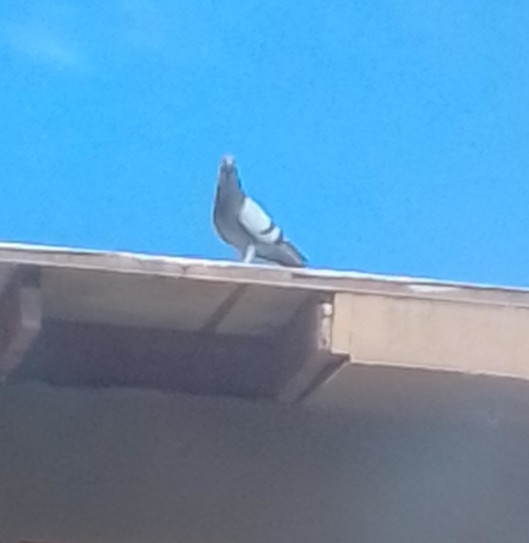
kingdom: Animalia
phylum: Chordata
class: Aves
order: Columbiformes
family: Columbidae
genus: Columba
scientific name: Columba livia
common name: Rock pigeon
